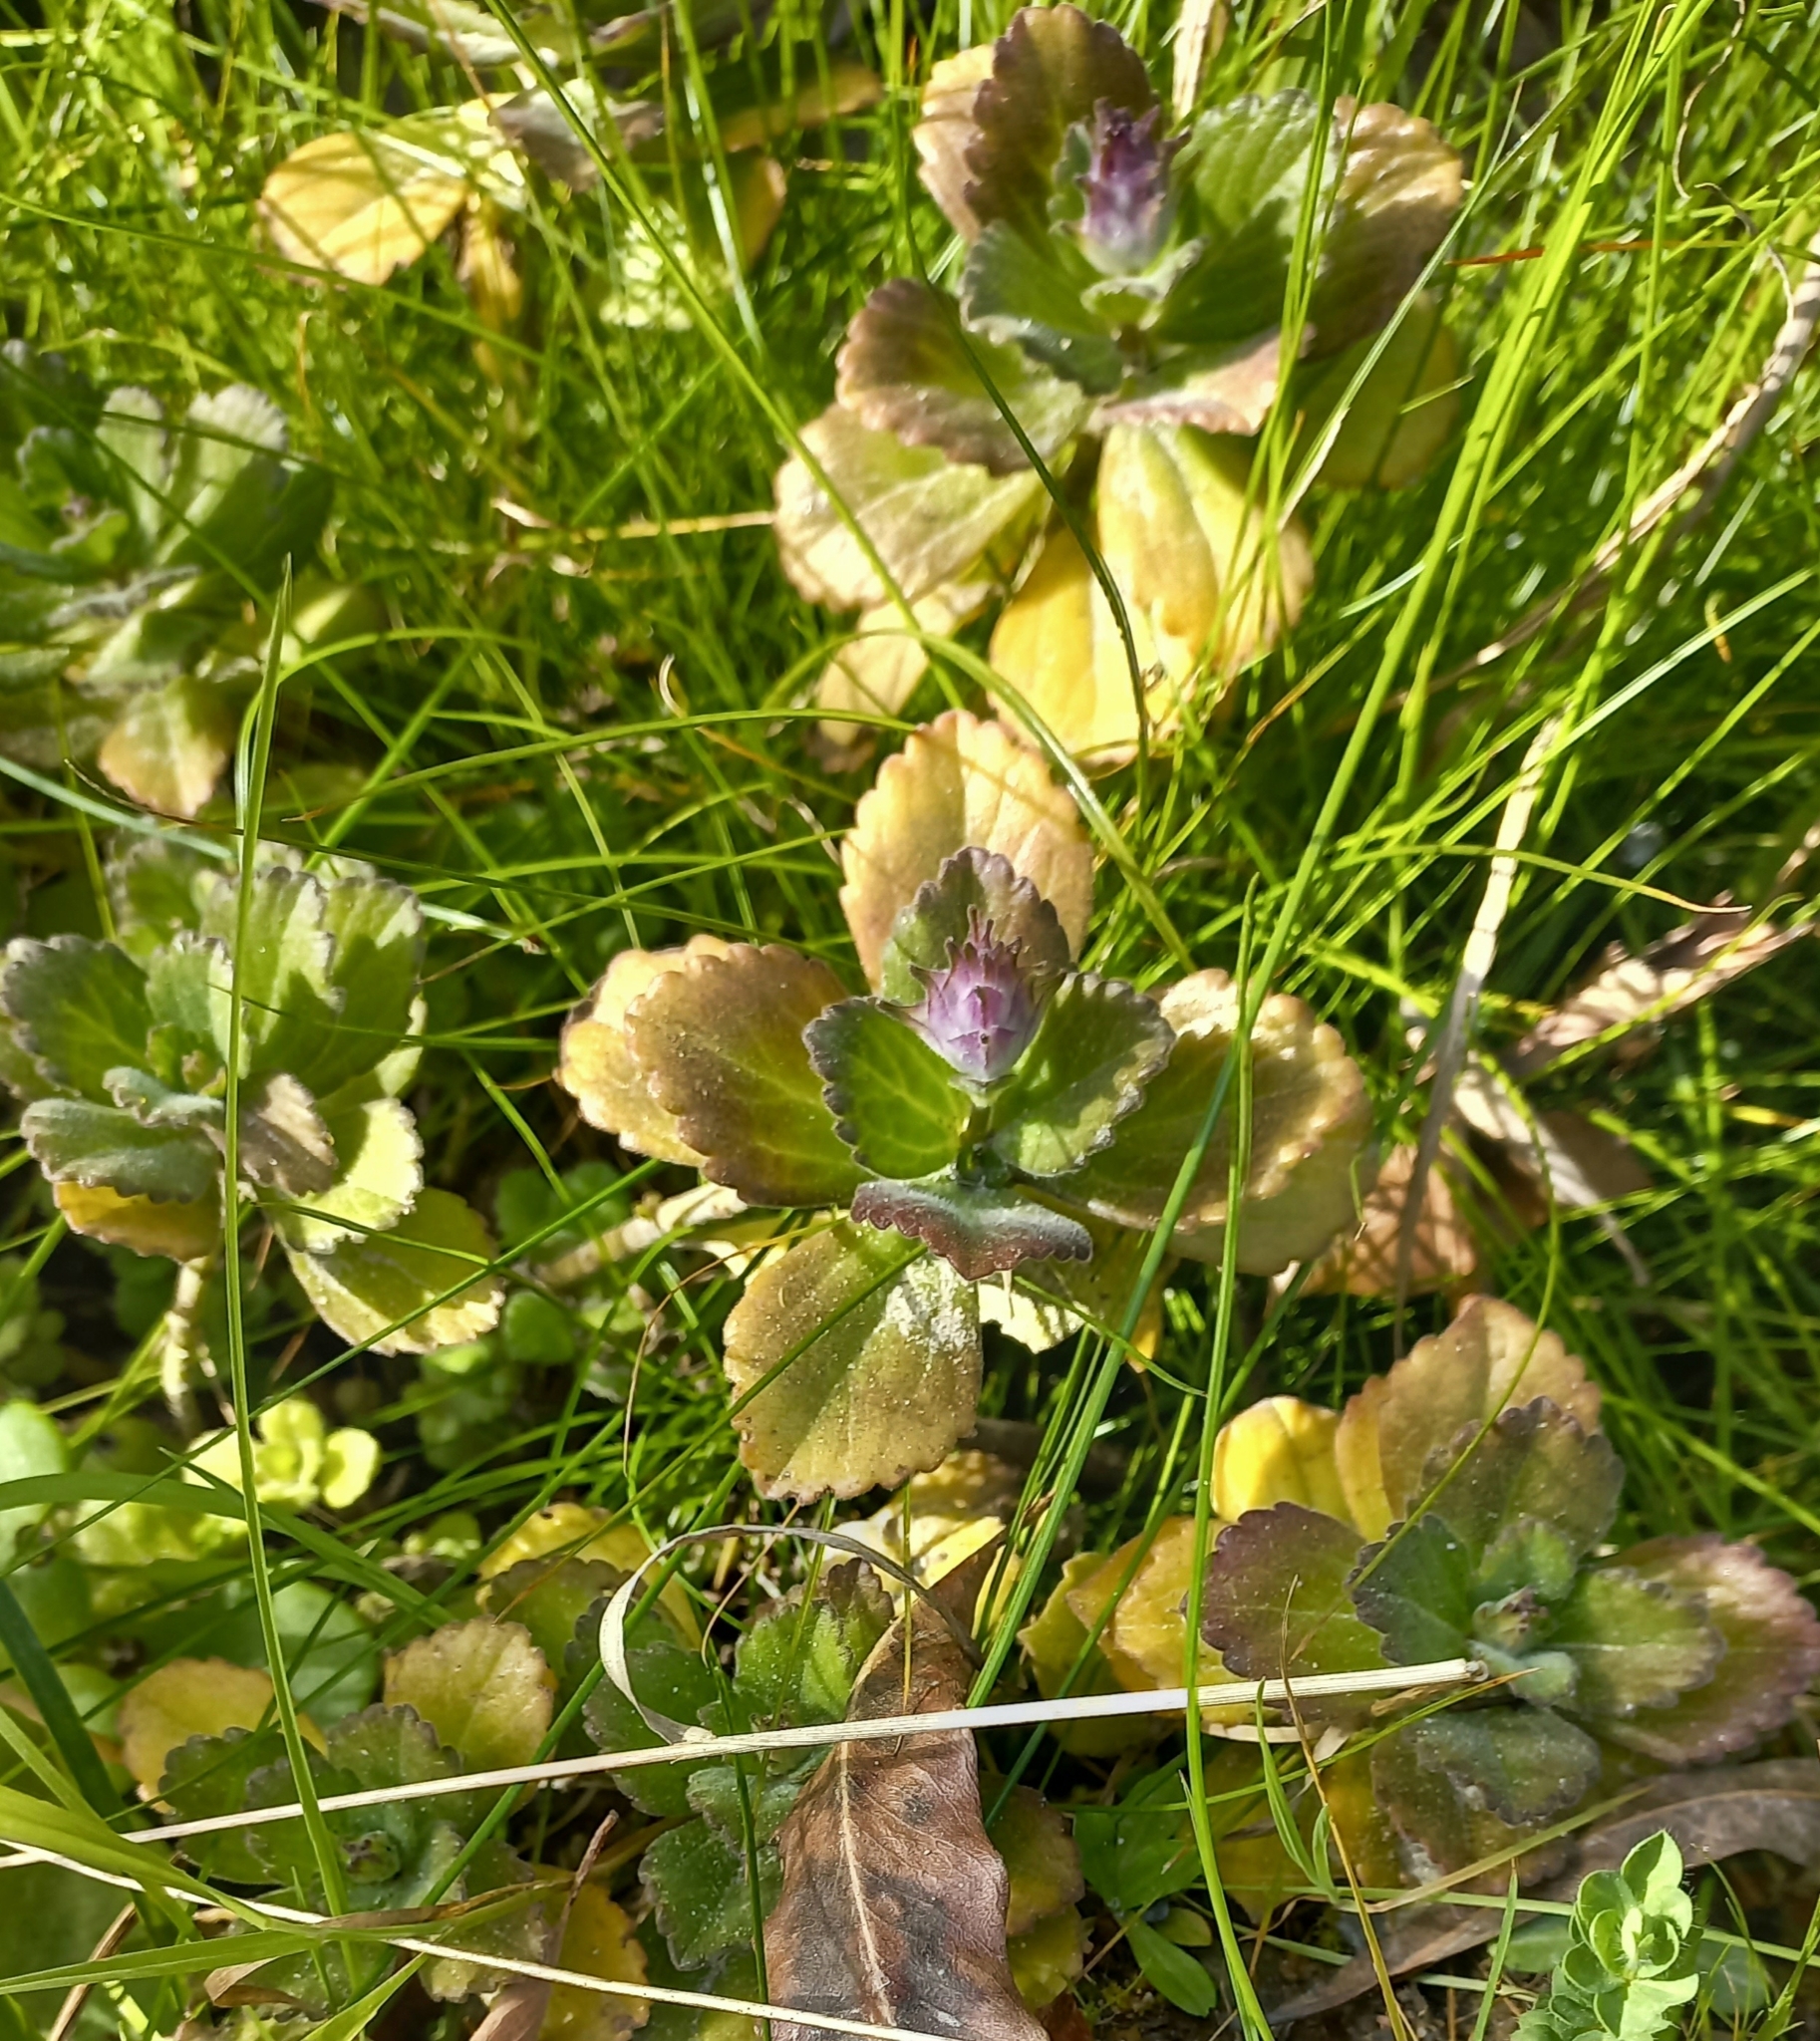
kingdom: Plantae
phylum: Tracheophyta
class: Magnoliopsida
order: Lamiales
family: Lamiaceae
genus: Coleus
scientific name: Coleus neochilus
